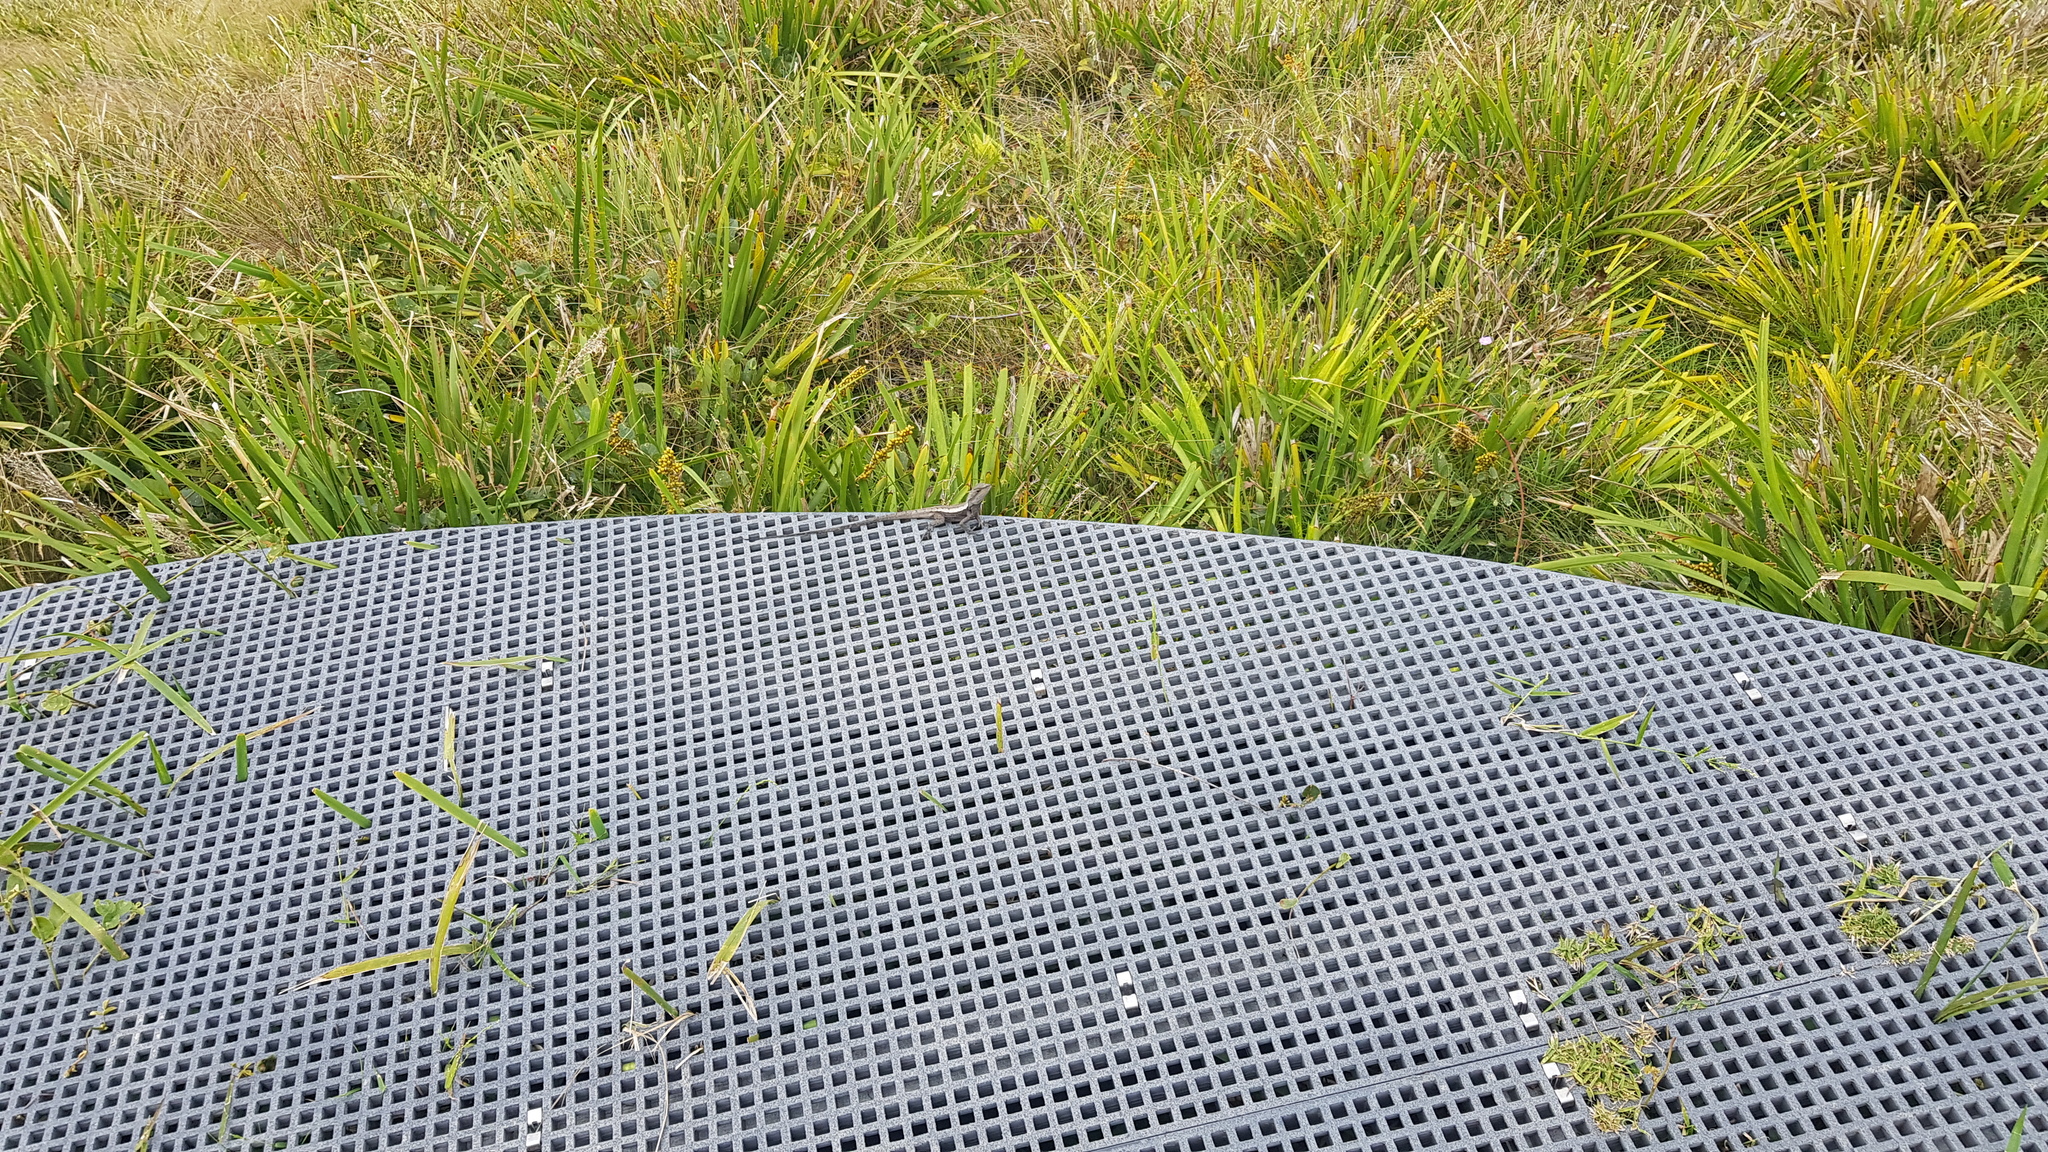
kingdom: Animalia
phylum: Chordata
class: Squamata
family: Agamidae
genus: Amphibolurus
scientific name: Amphibolurus muricatus
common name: Jacky lizard
